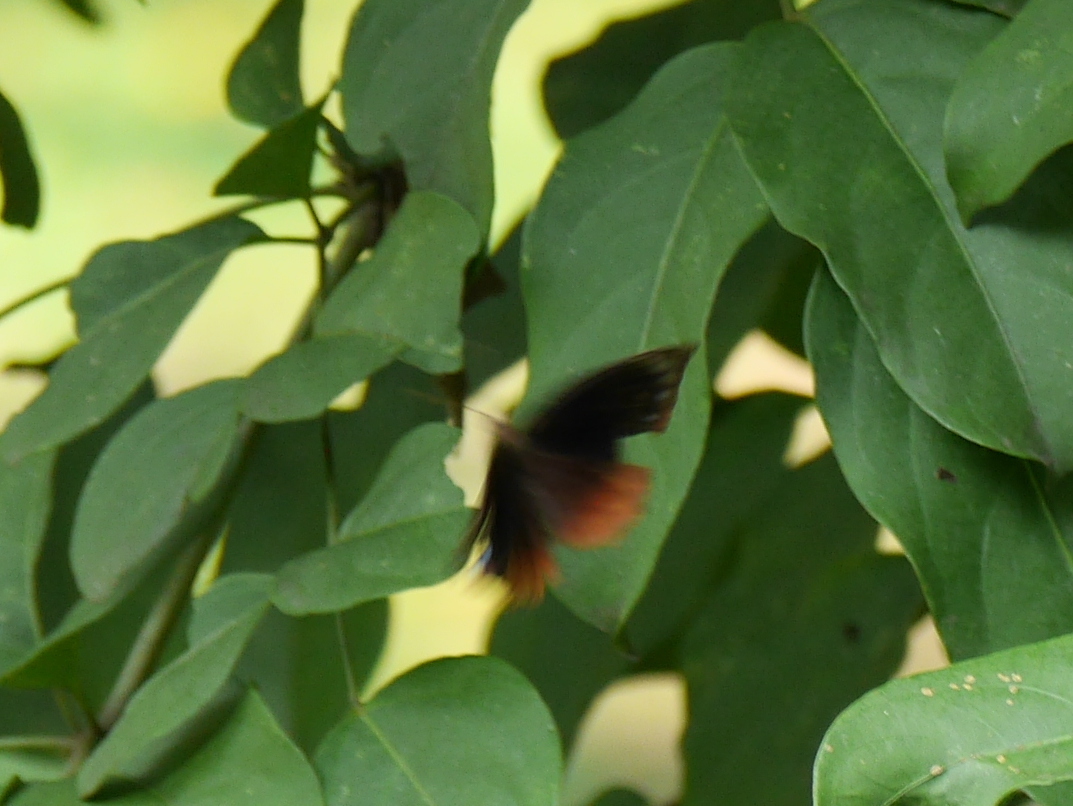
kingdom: Animalia
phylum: Arthropoda
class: Insecta
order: Lepidoptera
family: Nymphalidae
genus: Elymnias
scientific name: Elymnias hypermnestra
